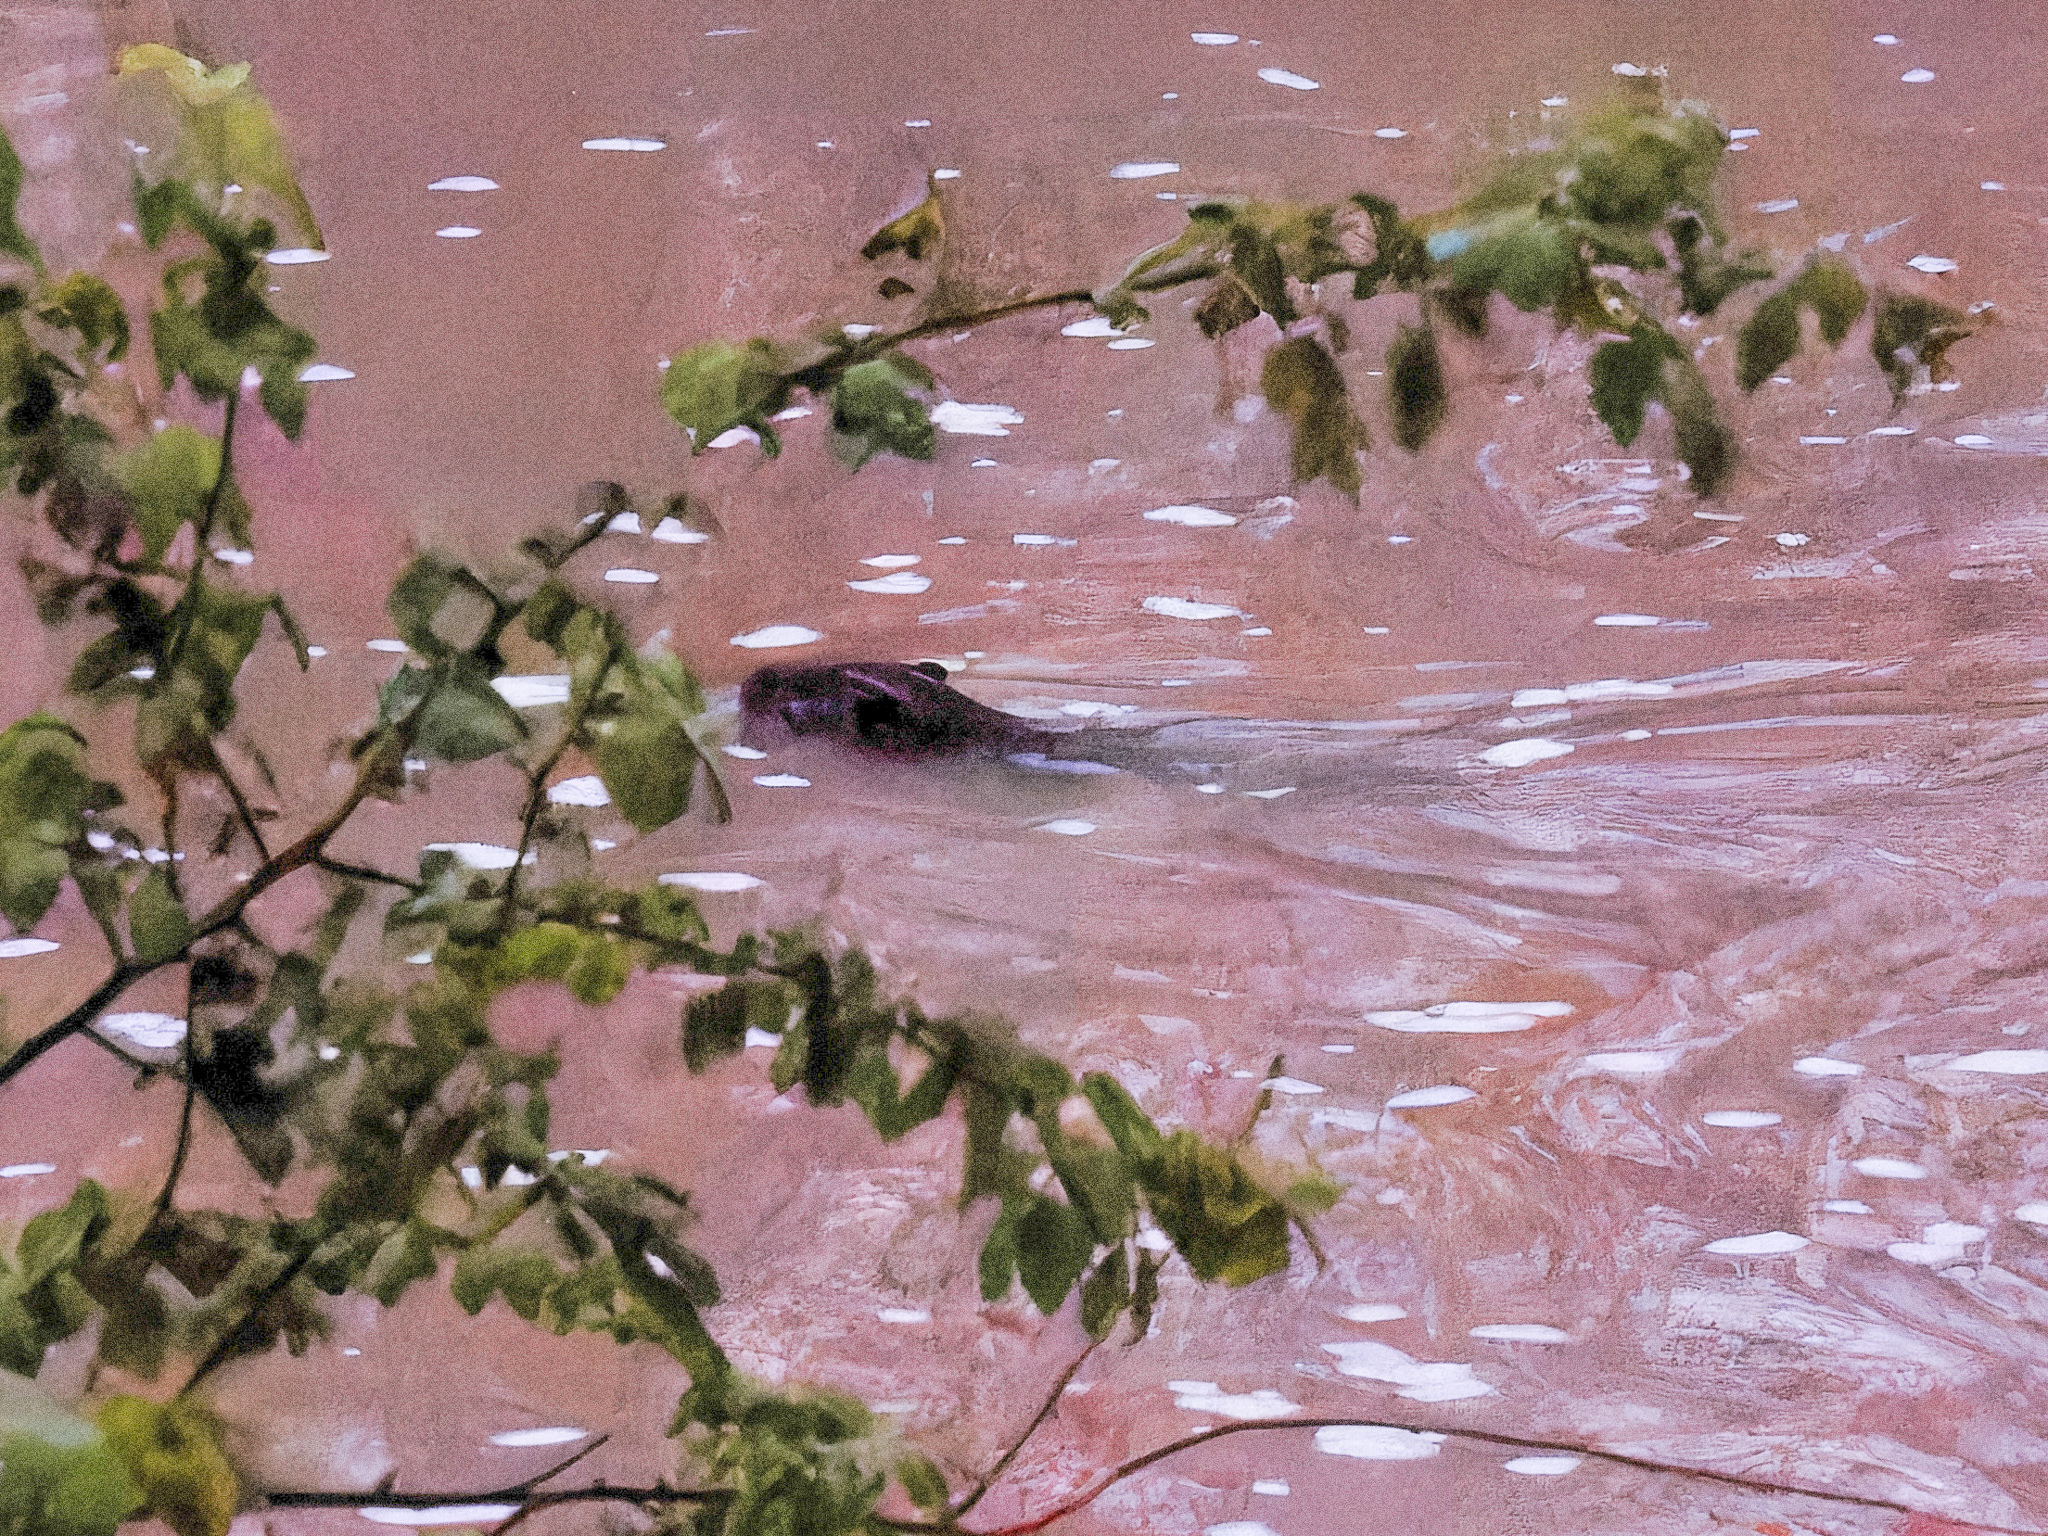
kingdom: Animalia
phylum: Chordata
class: Mammalia
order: Rodentia
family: Castoridae
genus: Castor
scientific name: Castor canadensis
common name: American beaver
